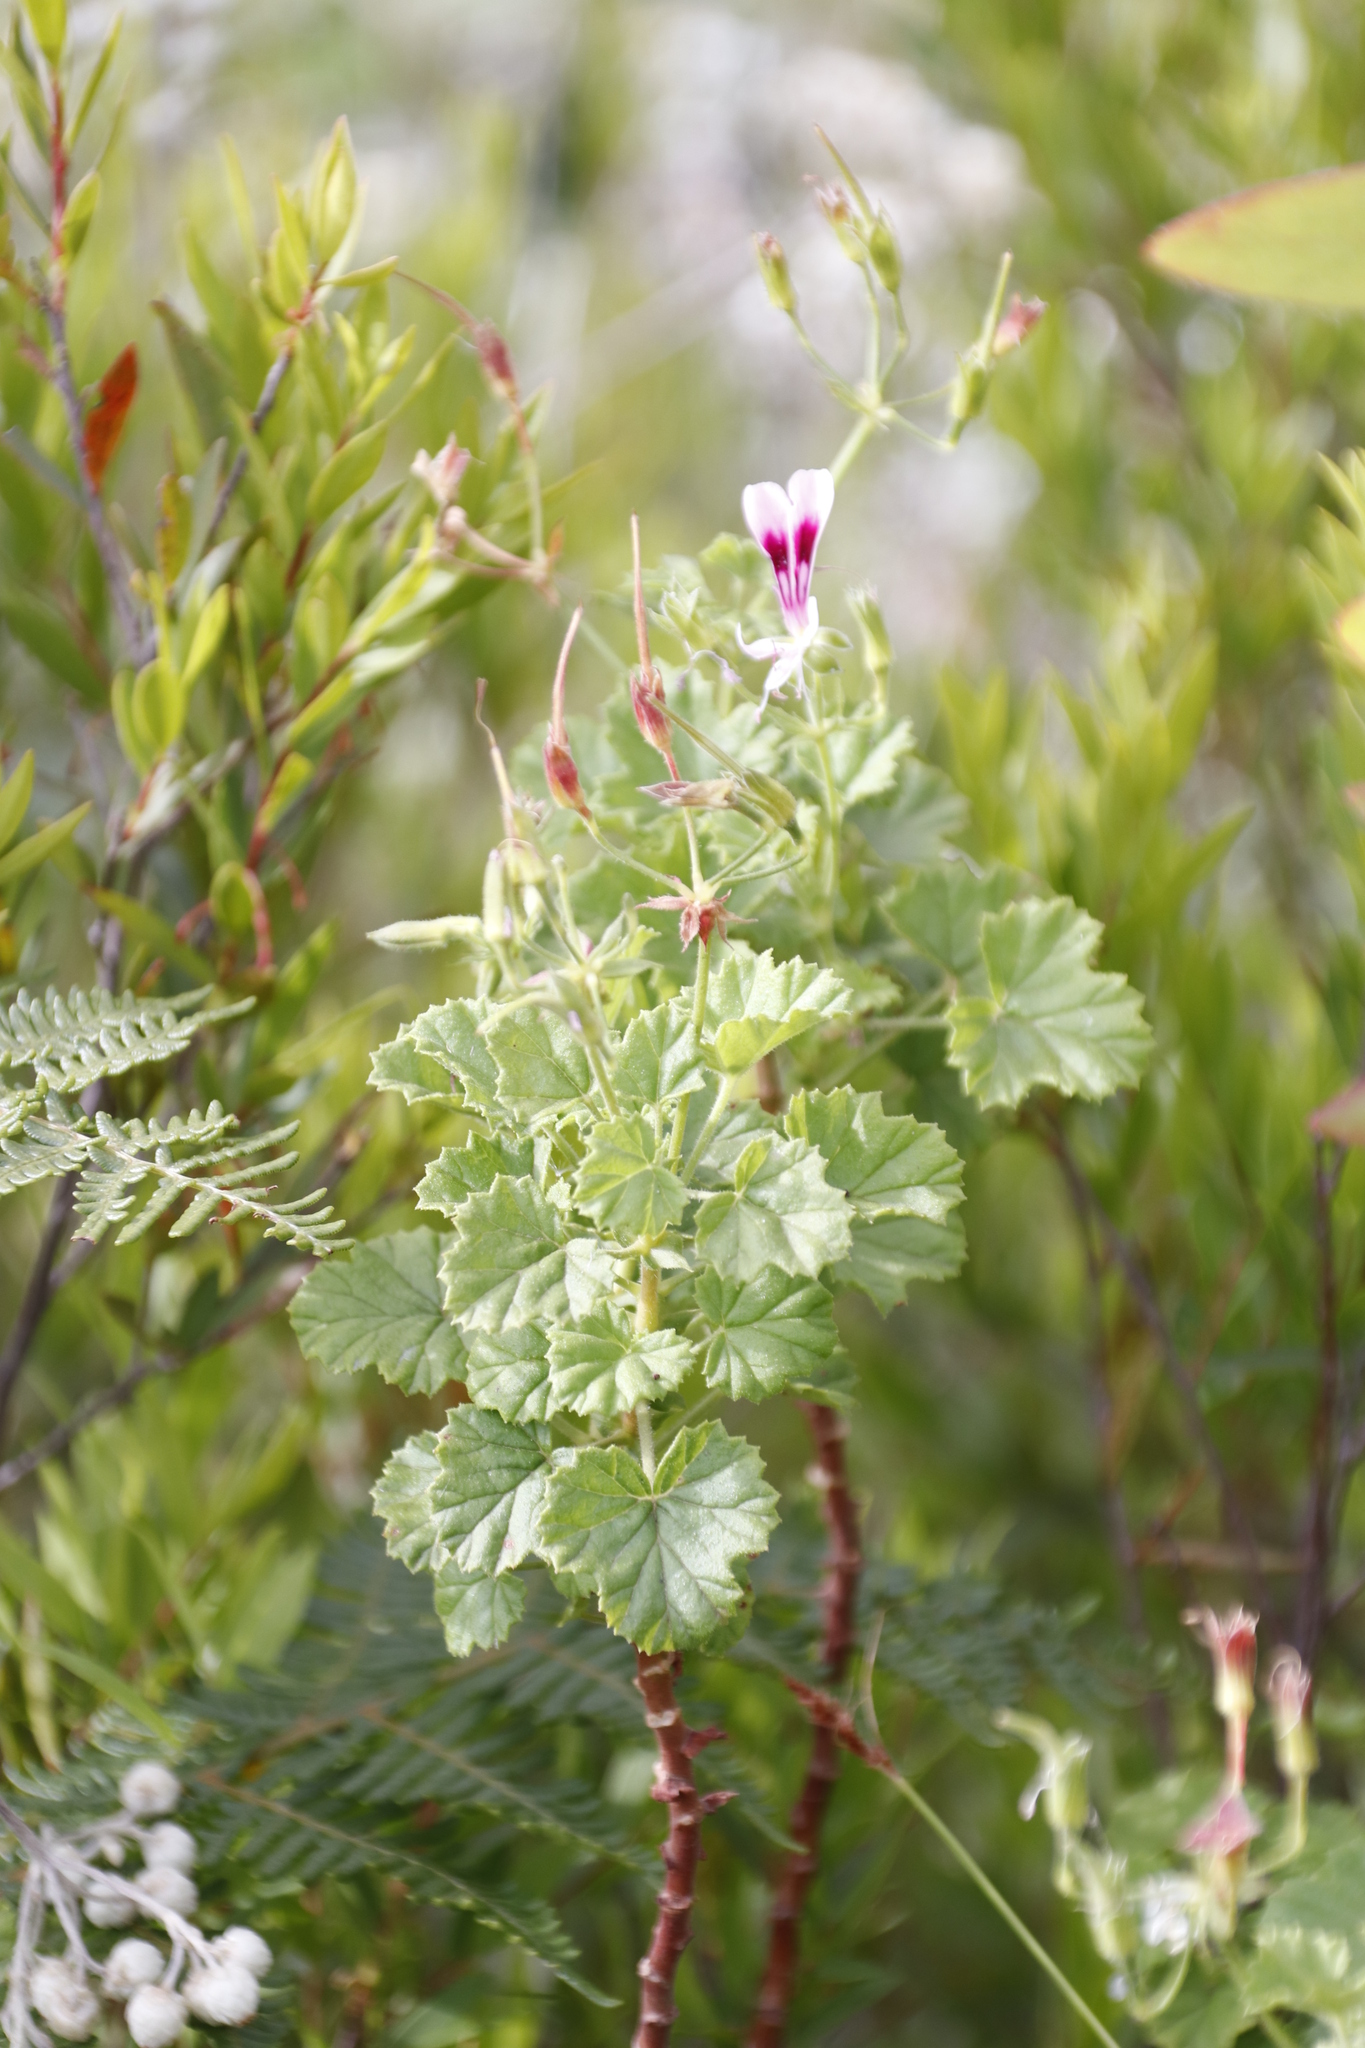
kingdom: Plantae
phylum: Tracheophyta
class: Magnoliopsida
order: Geraniales
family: Geraniaceae
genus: Pelargonium
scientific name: Pelargonium greytonense
